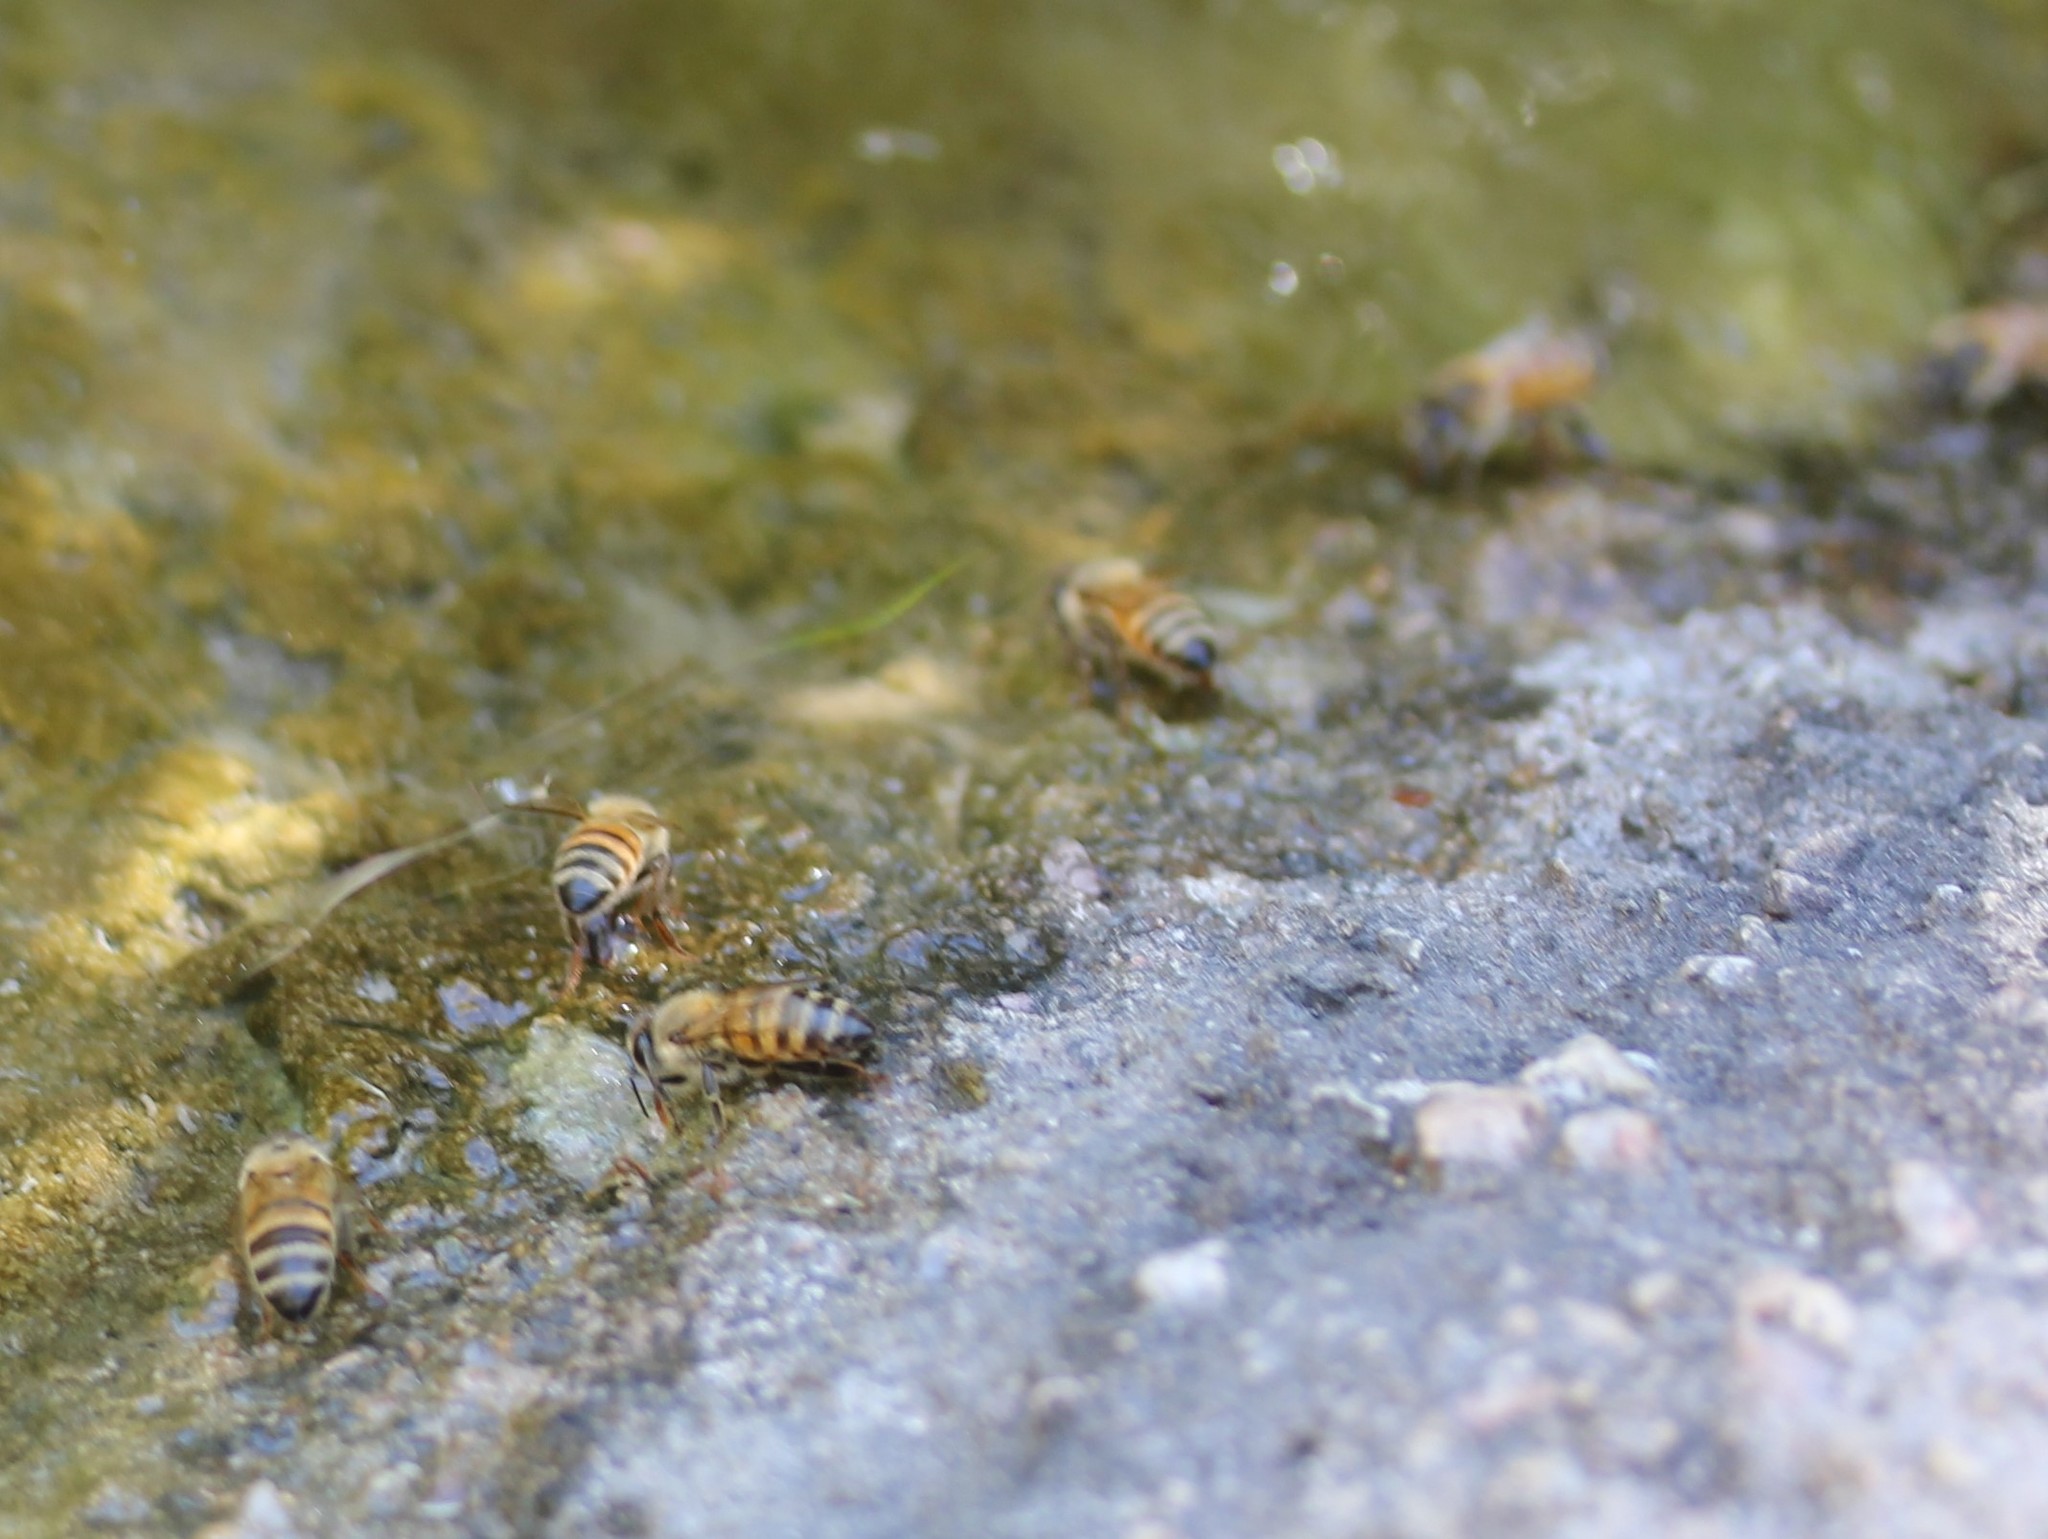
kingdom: Animalia
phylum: Arthropoda
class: Insecta
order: Hymenoptera
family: Apidae
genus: Apis
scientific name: Apis mellifera
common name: Honey bee
